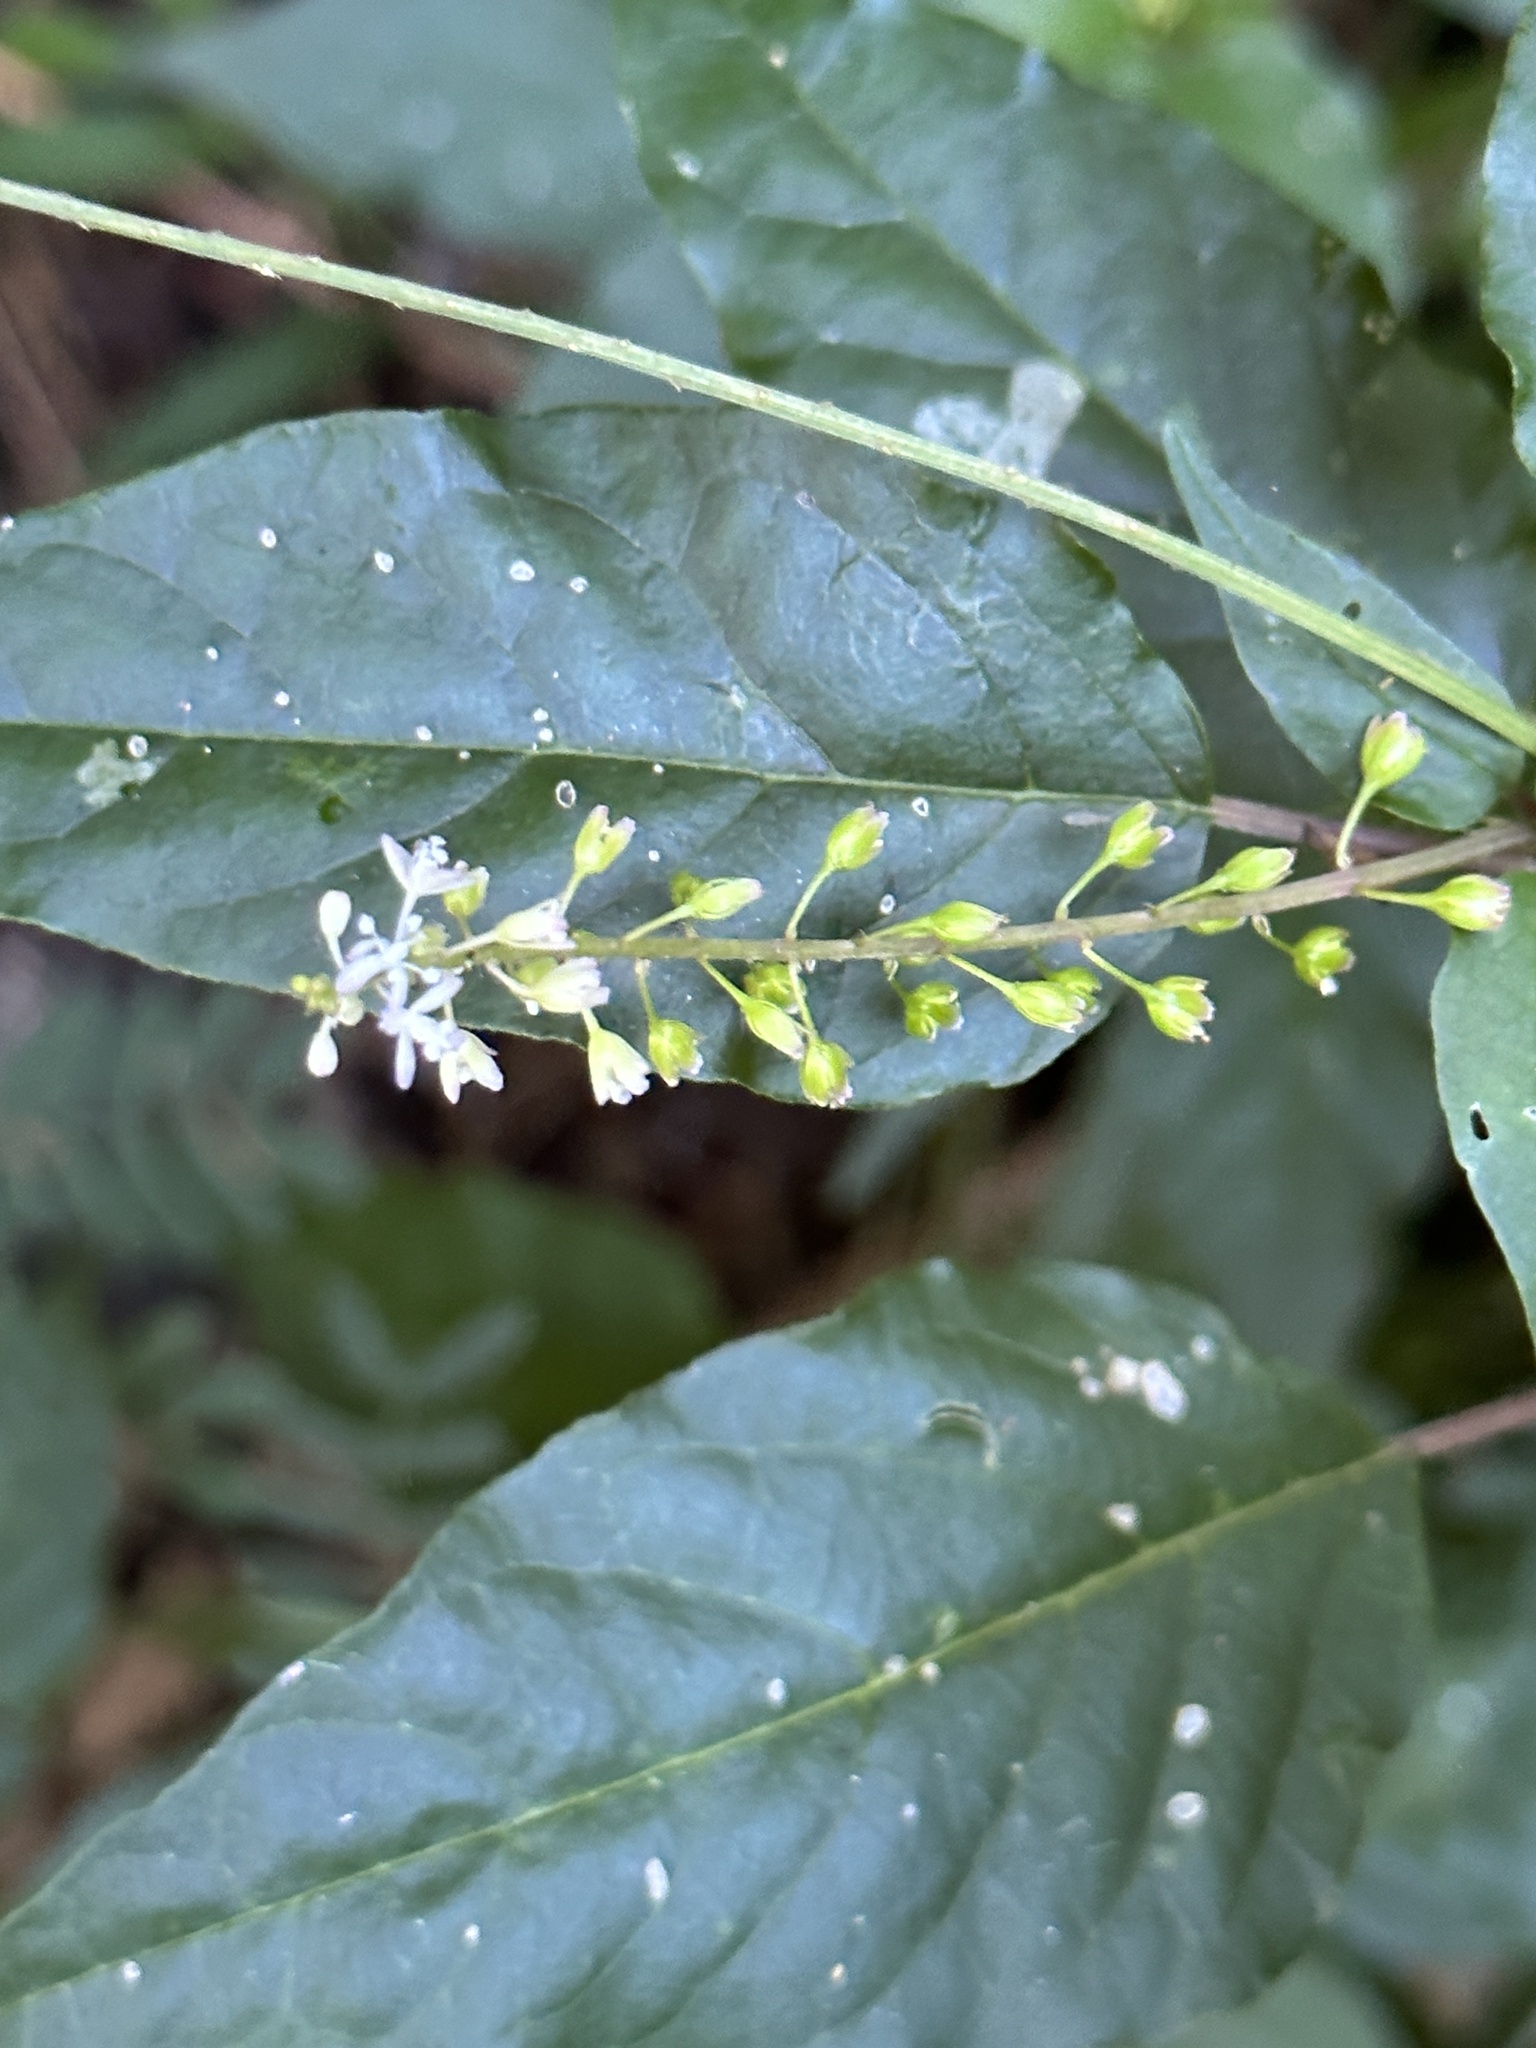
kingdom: Plantae
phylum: Tracheophyta
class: Magnoliopsida
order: Caryophyllales
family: Phytolaccaceae
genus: Rivina
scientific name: Rivina humilis
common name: Rougeplant
